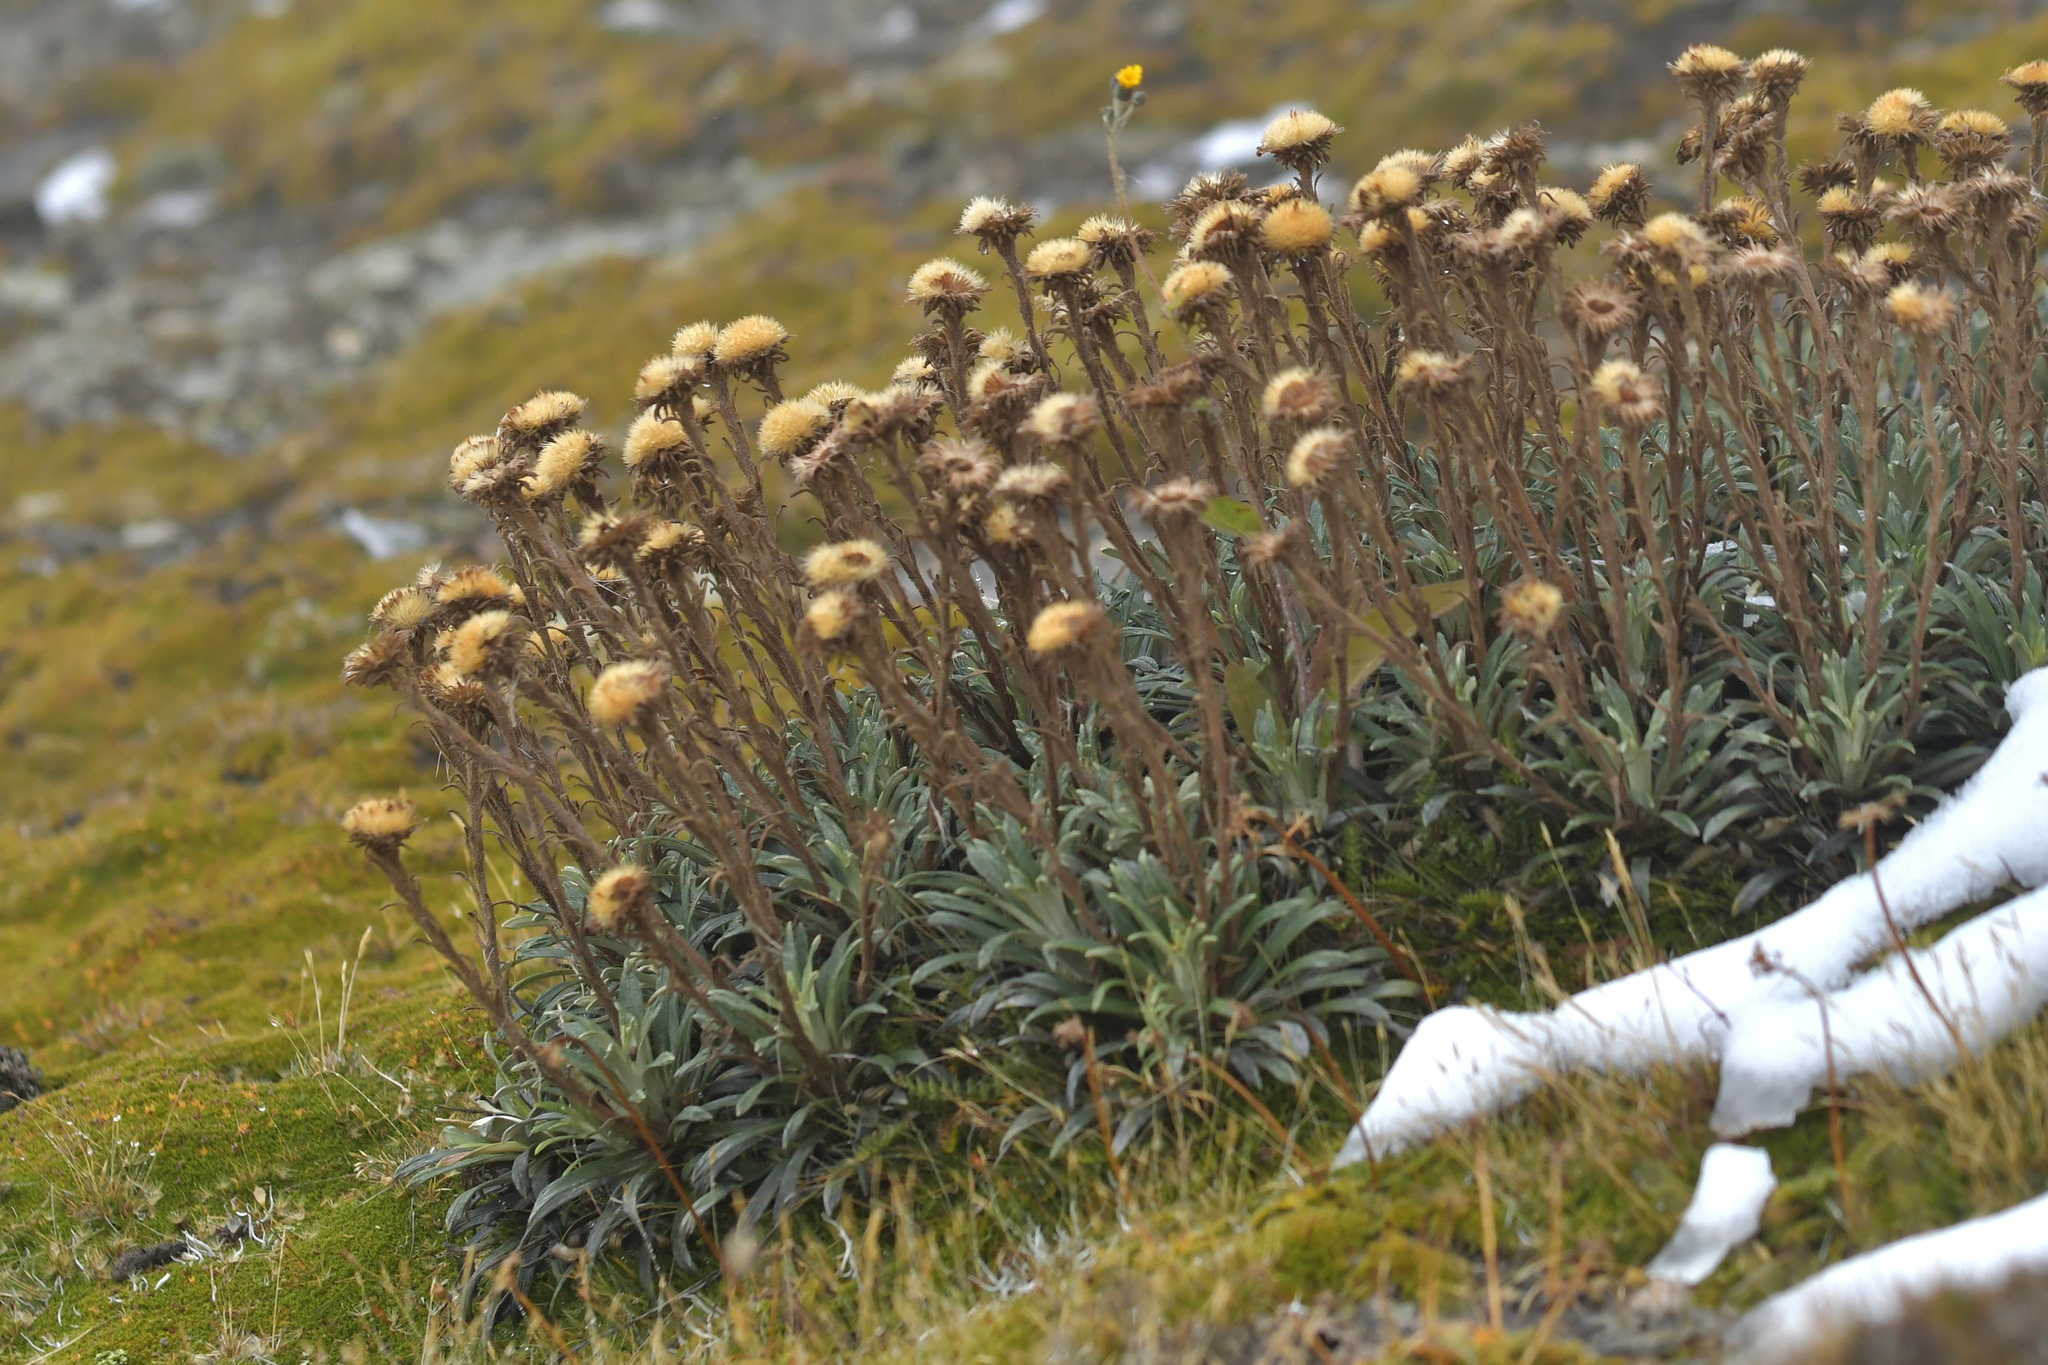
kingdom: Plantae
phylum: Tracheophyta
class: Magnoliopsida
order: Asterales
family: Asteraceae
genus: Celmisia
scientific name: Celmisia viscosa
